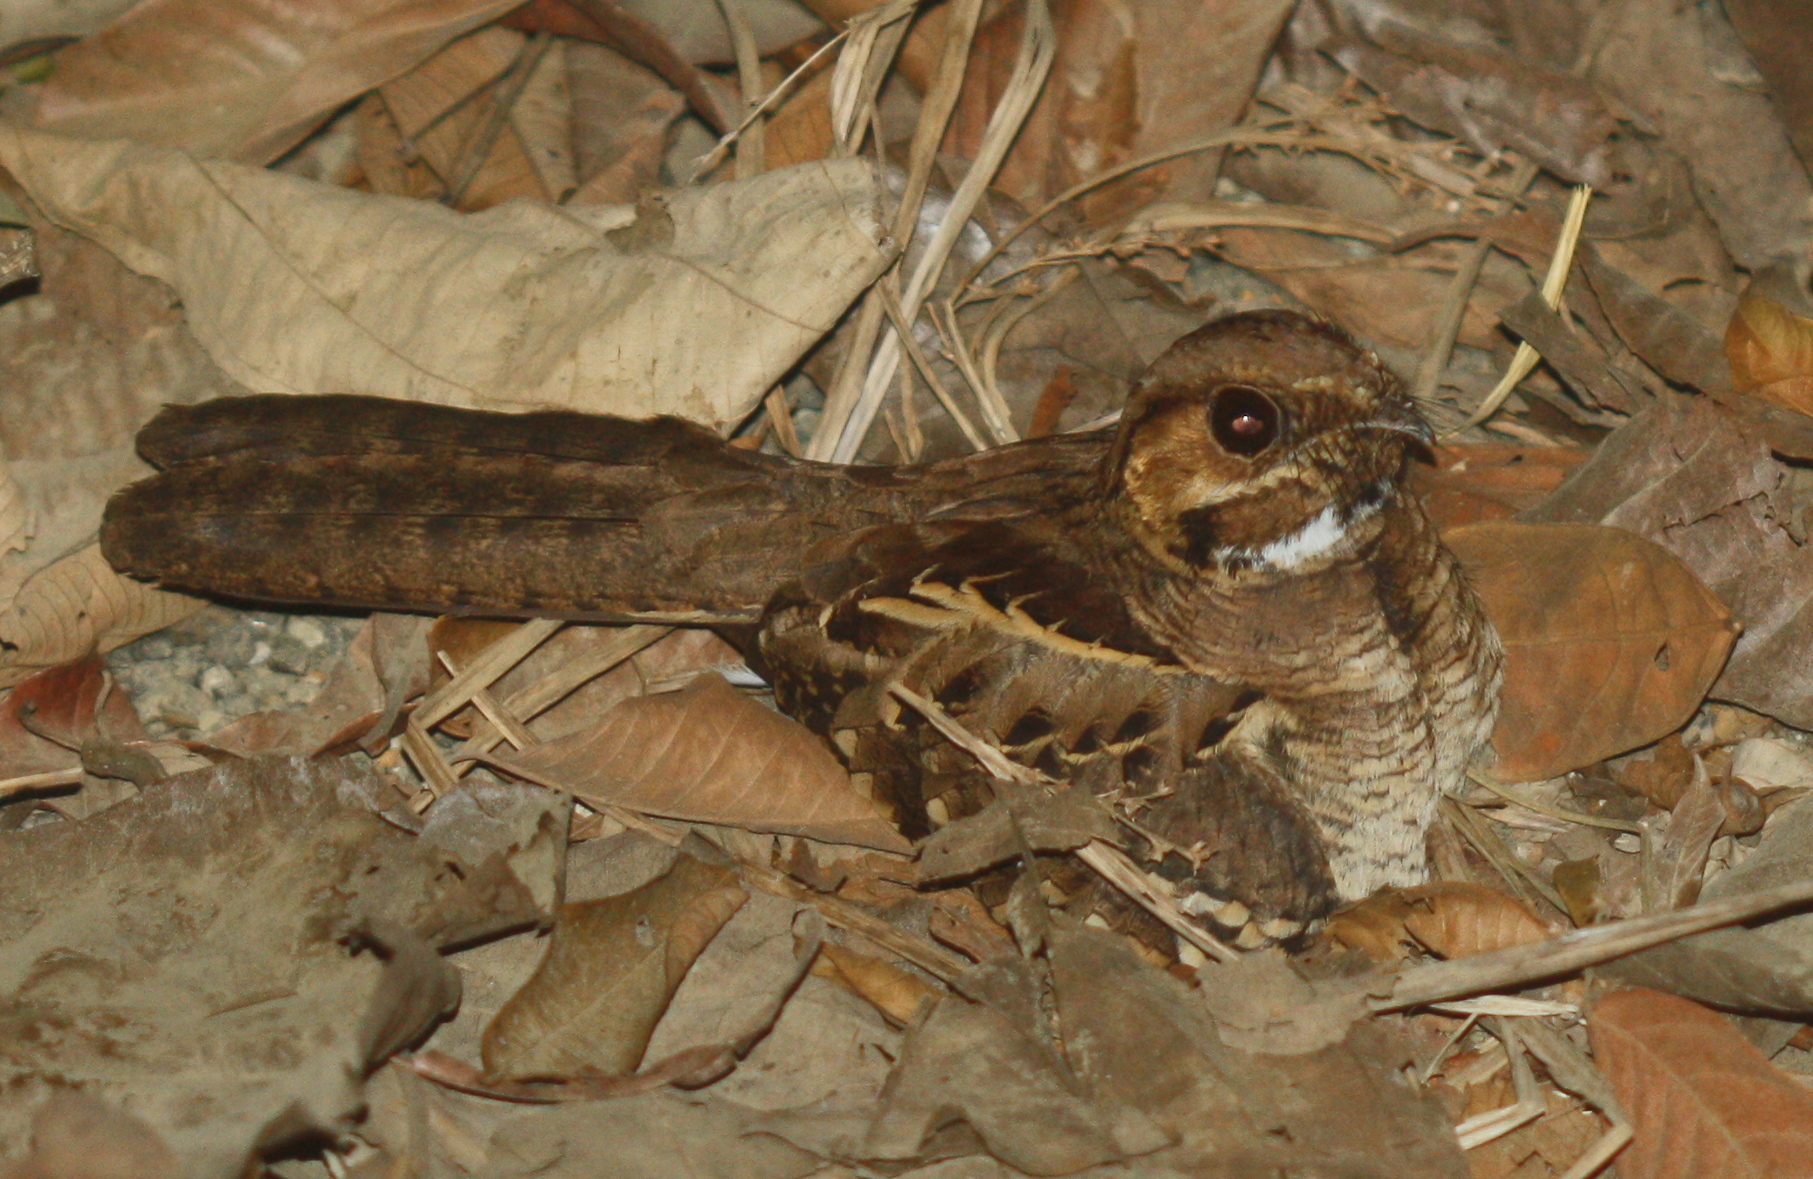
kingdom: Animalia
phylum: Chordata
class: Aves
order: Caprimulgiformes
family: Caprimulgidae
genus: Nyctidromus
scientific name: Nyctidromus albicollis
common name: Pauraque
